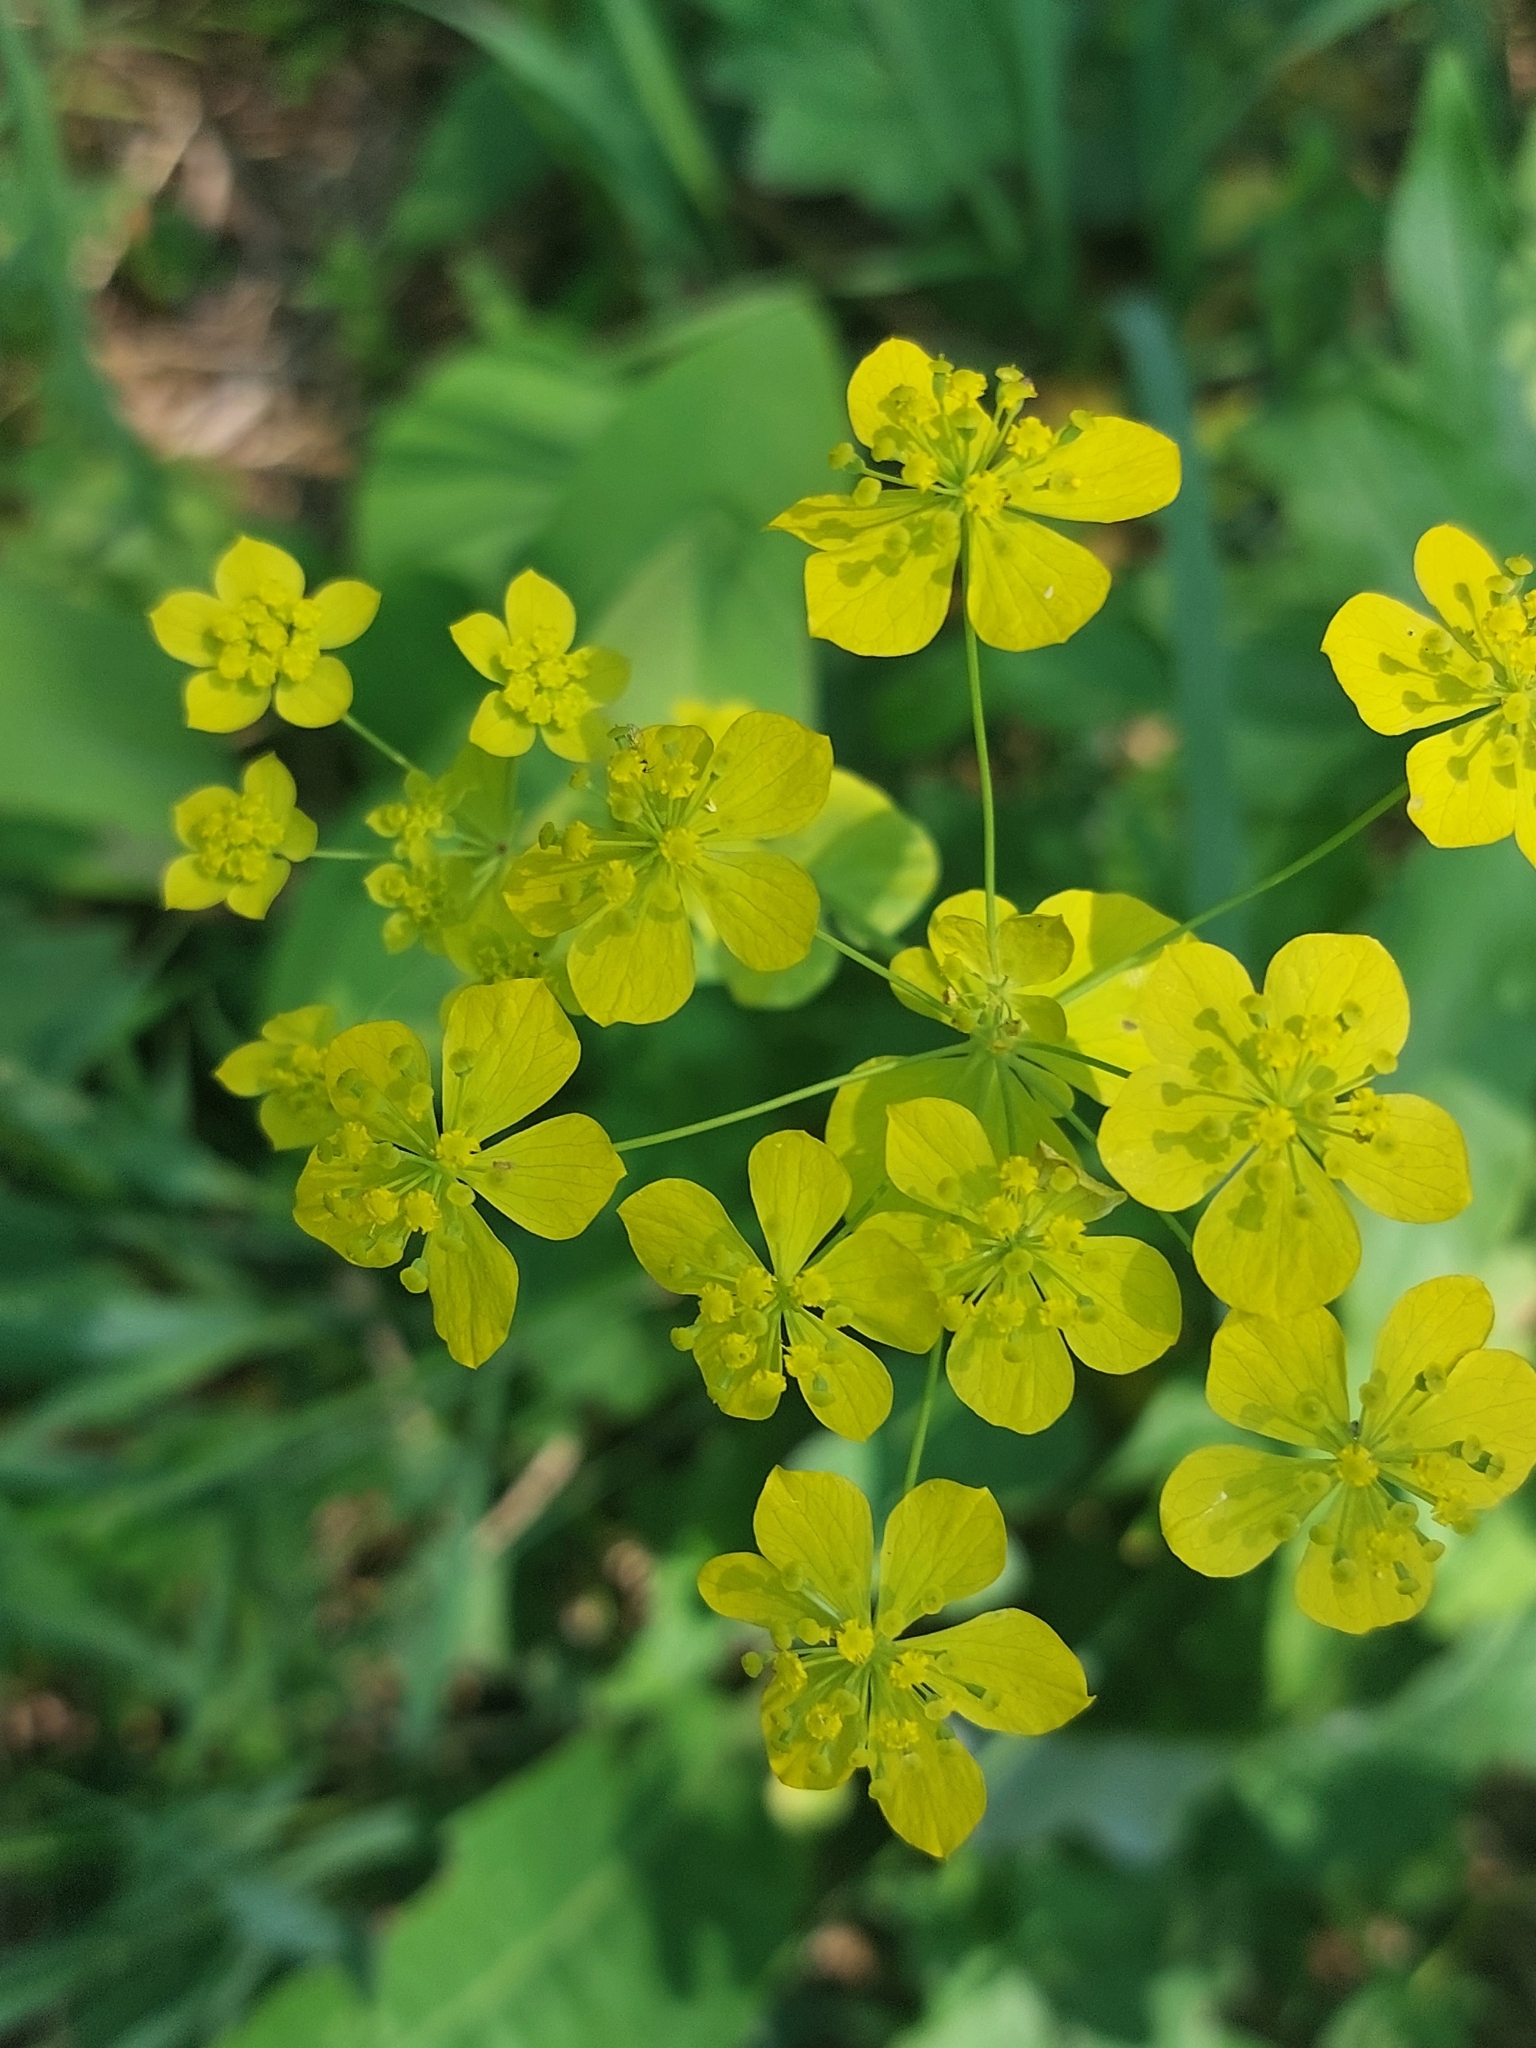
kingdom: Plantae
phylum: Tracheophyta
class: Magnoliopsida
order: Apiales
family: Apiaceae
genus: Bupleurum
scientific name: Bupleurum aureum
